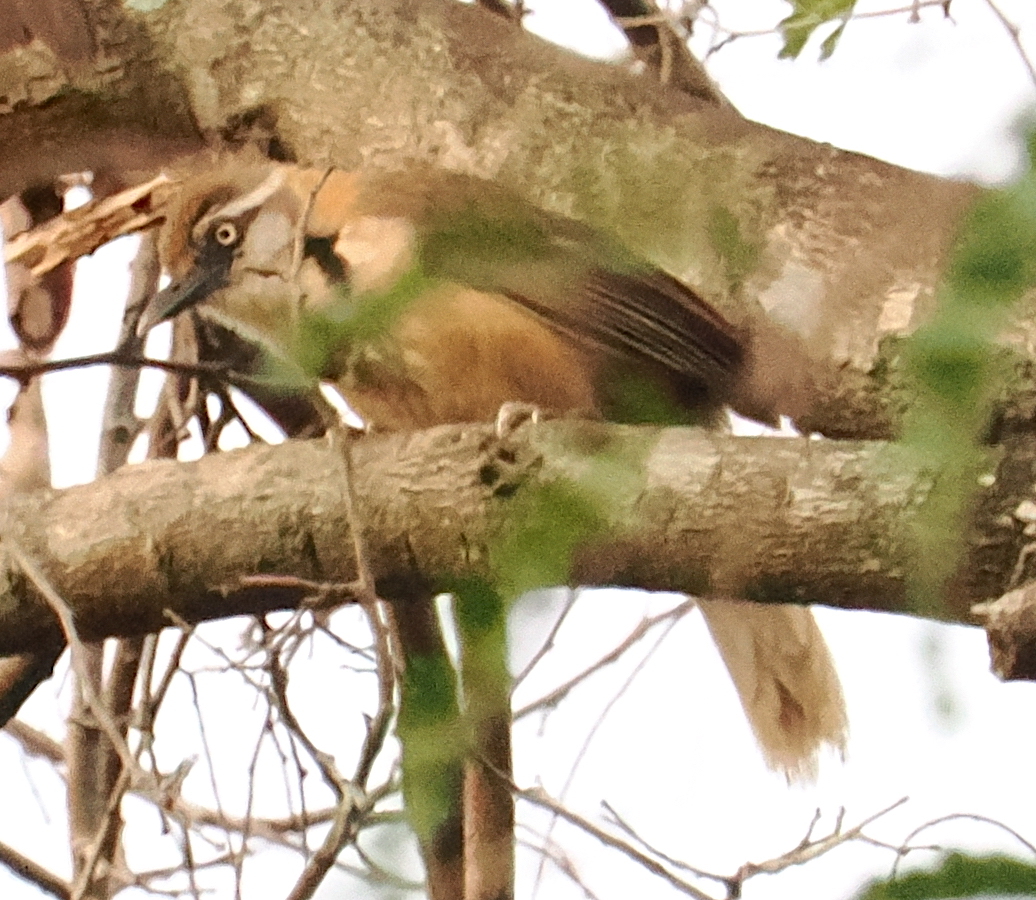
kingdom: Animalia
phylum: Chordata
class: Aves
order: Passeriformes
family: Leiothrichidae
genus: Garrulax
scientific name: Garrulax monileger
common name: Lesser necklaced laughingthrush
